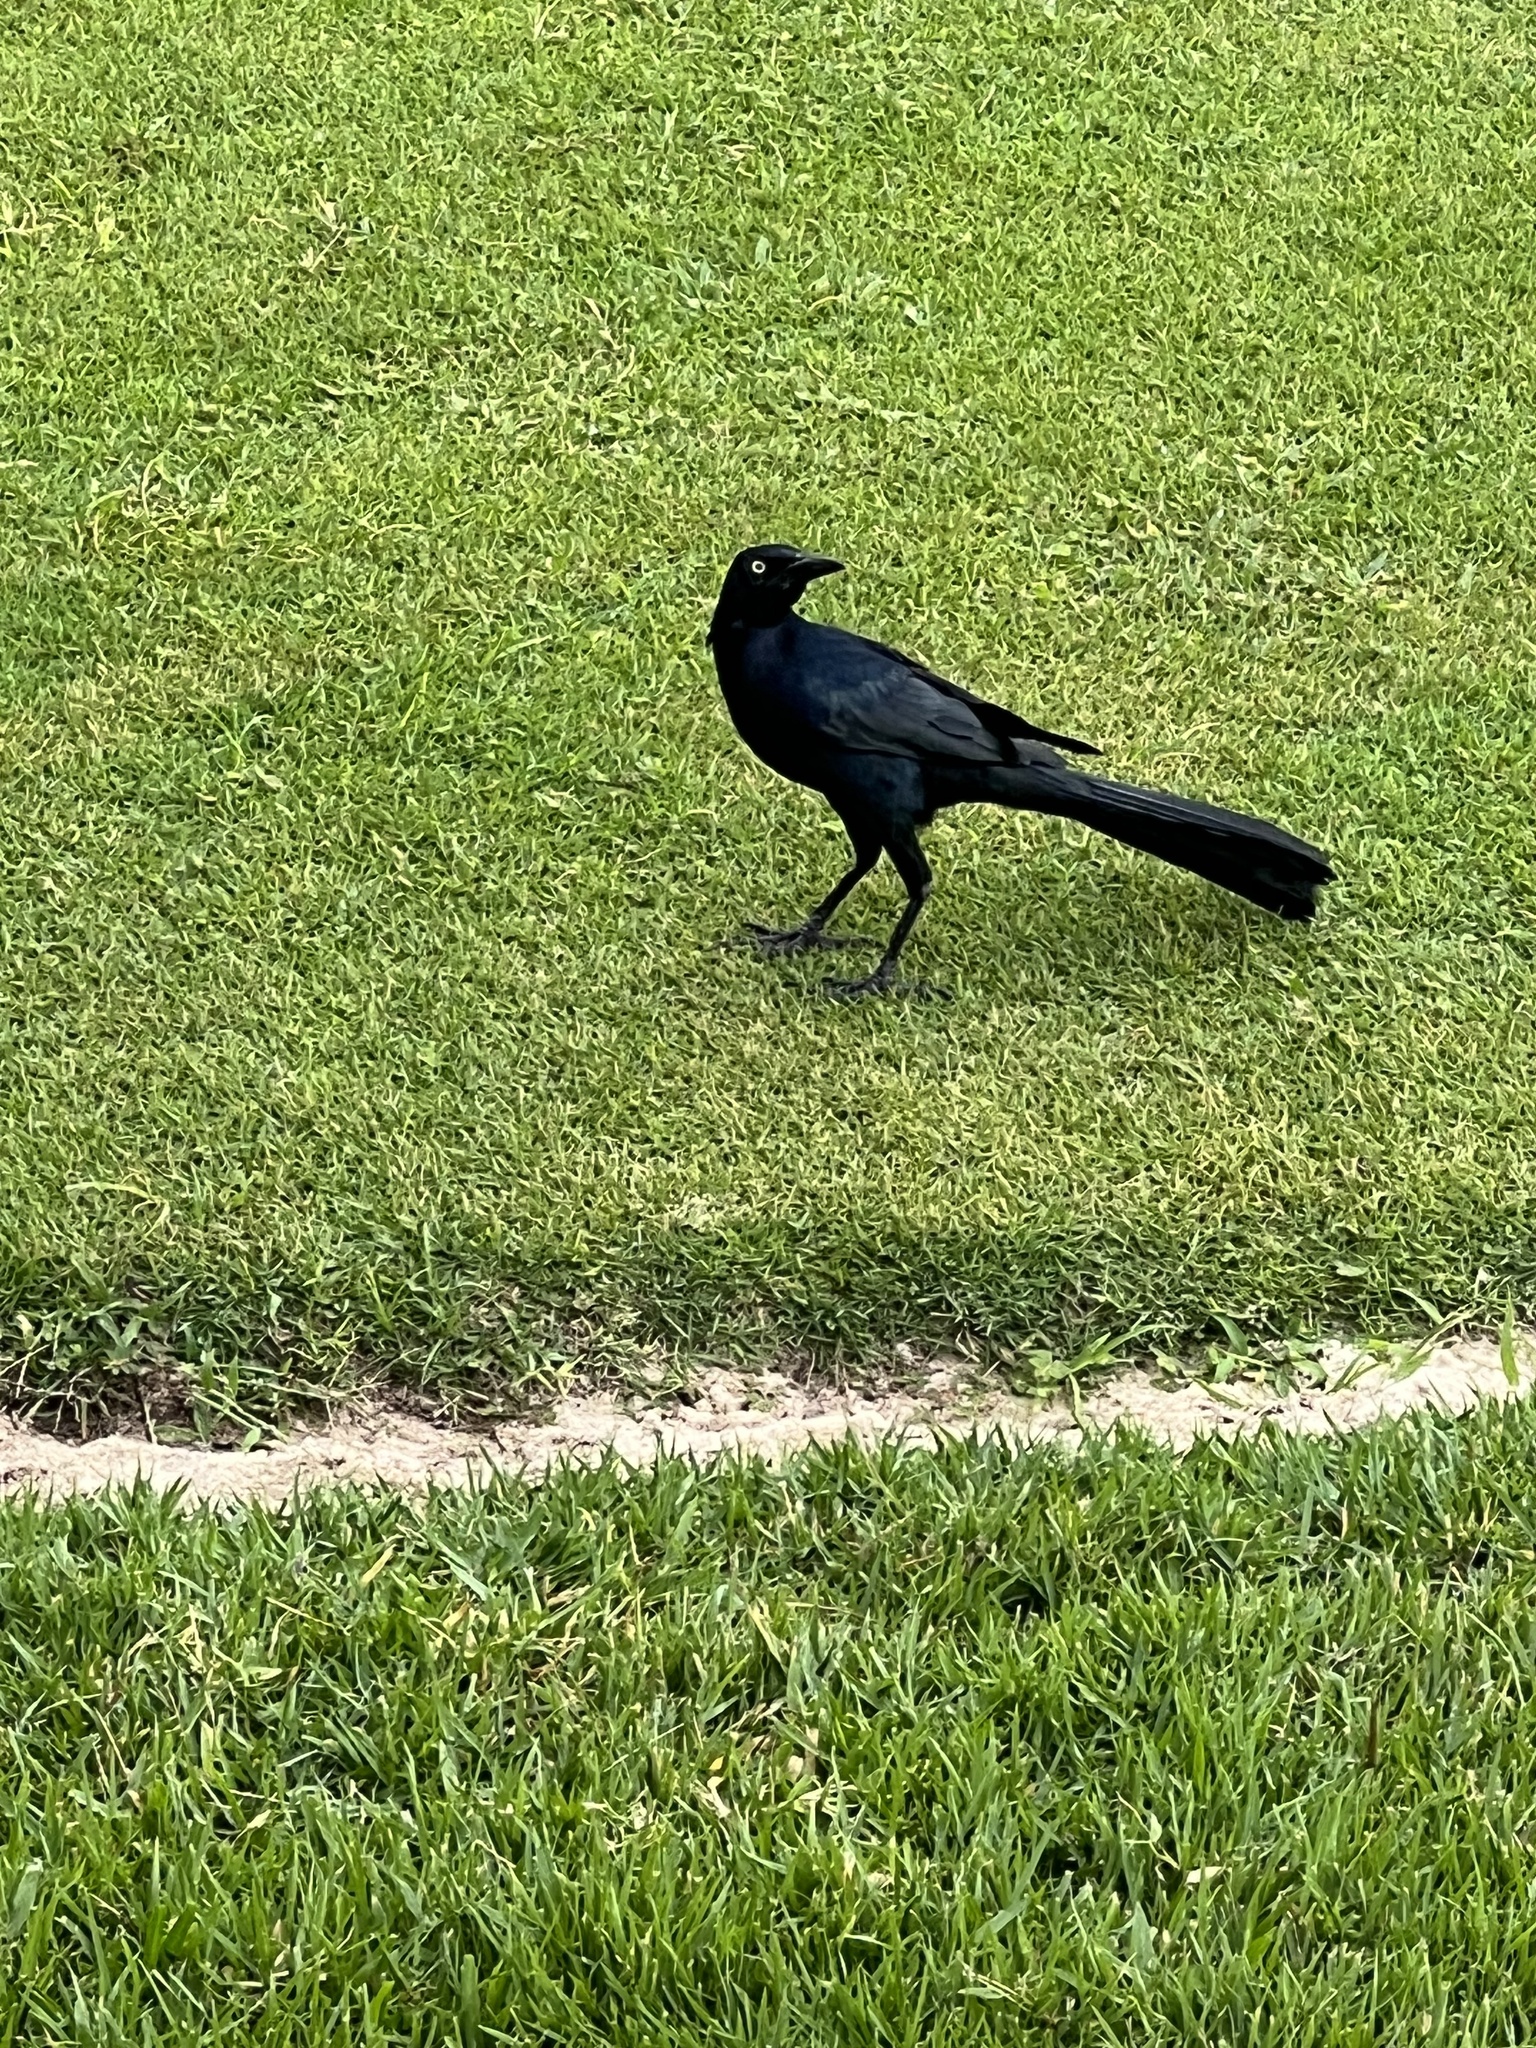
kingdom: Animalia
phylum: Chordata
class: Aves
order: Passeriformes
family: Icteridae
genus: Quiscalus
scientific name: Quiscalus mexicanus
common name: Great-tailed grackle
